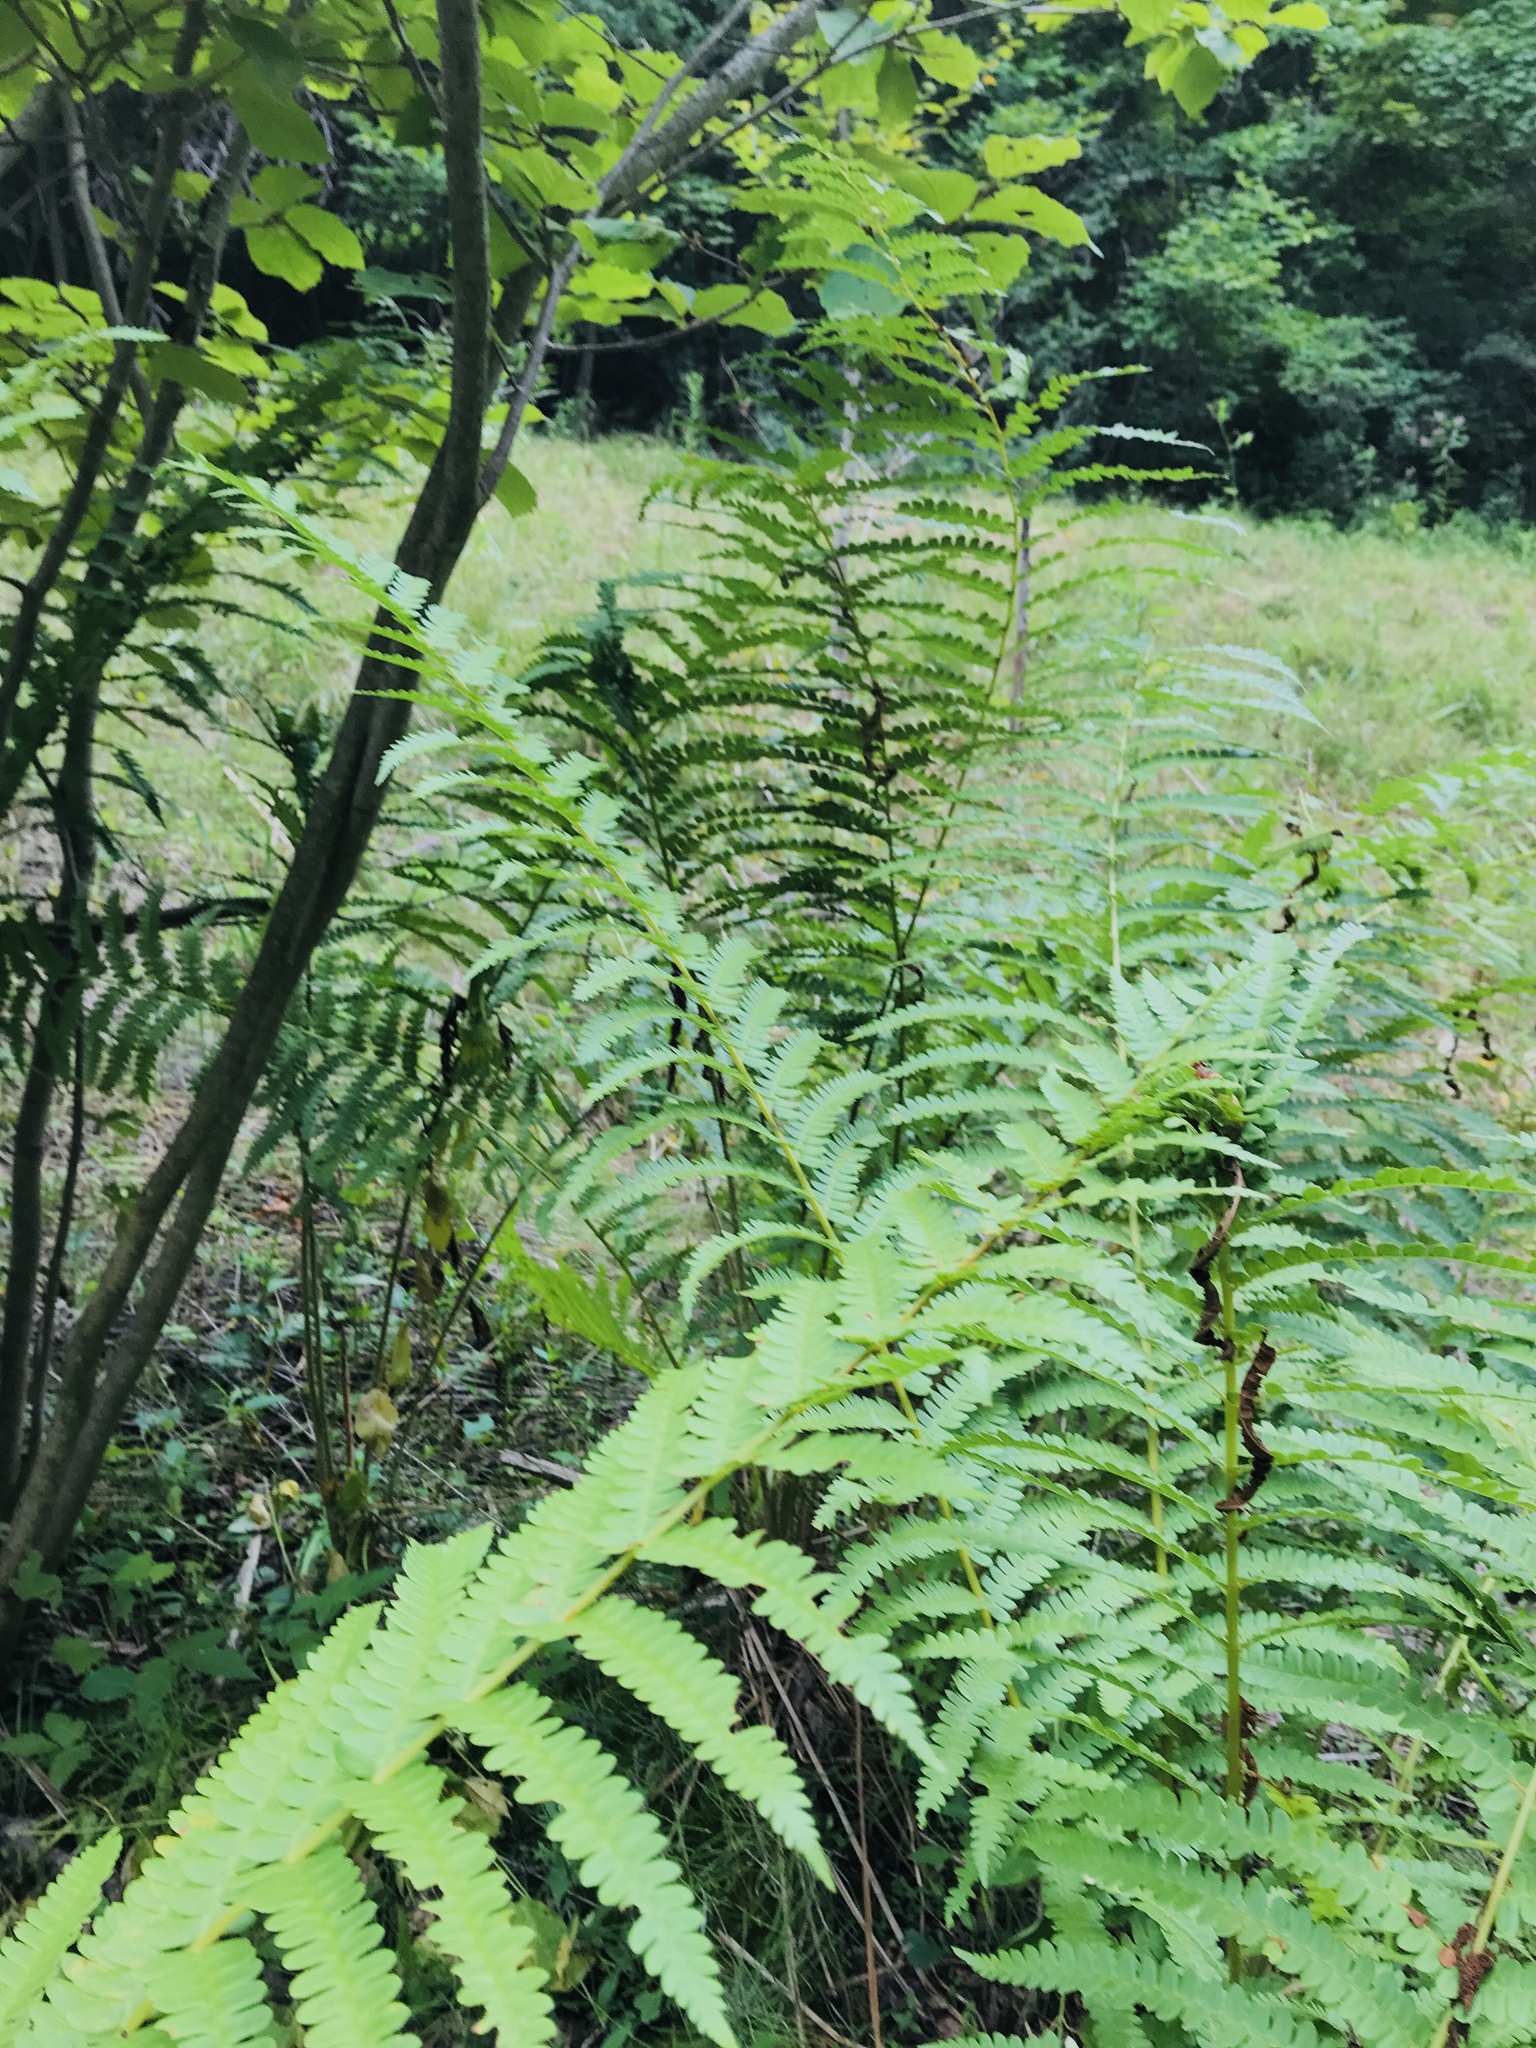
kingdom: Plantae
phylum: Tracheophyta
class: Polypodiopsida
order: Osmundales
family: Osmundaceae
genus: Osmundastrum
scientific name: Osmundastrum cinnamomeum
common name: Cinnamon fern
